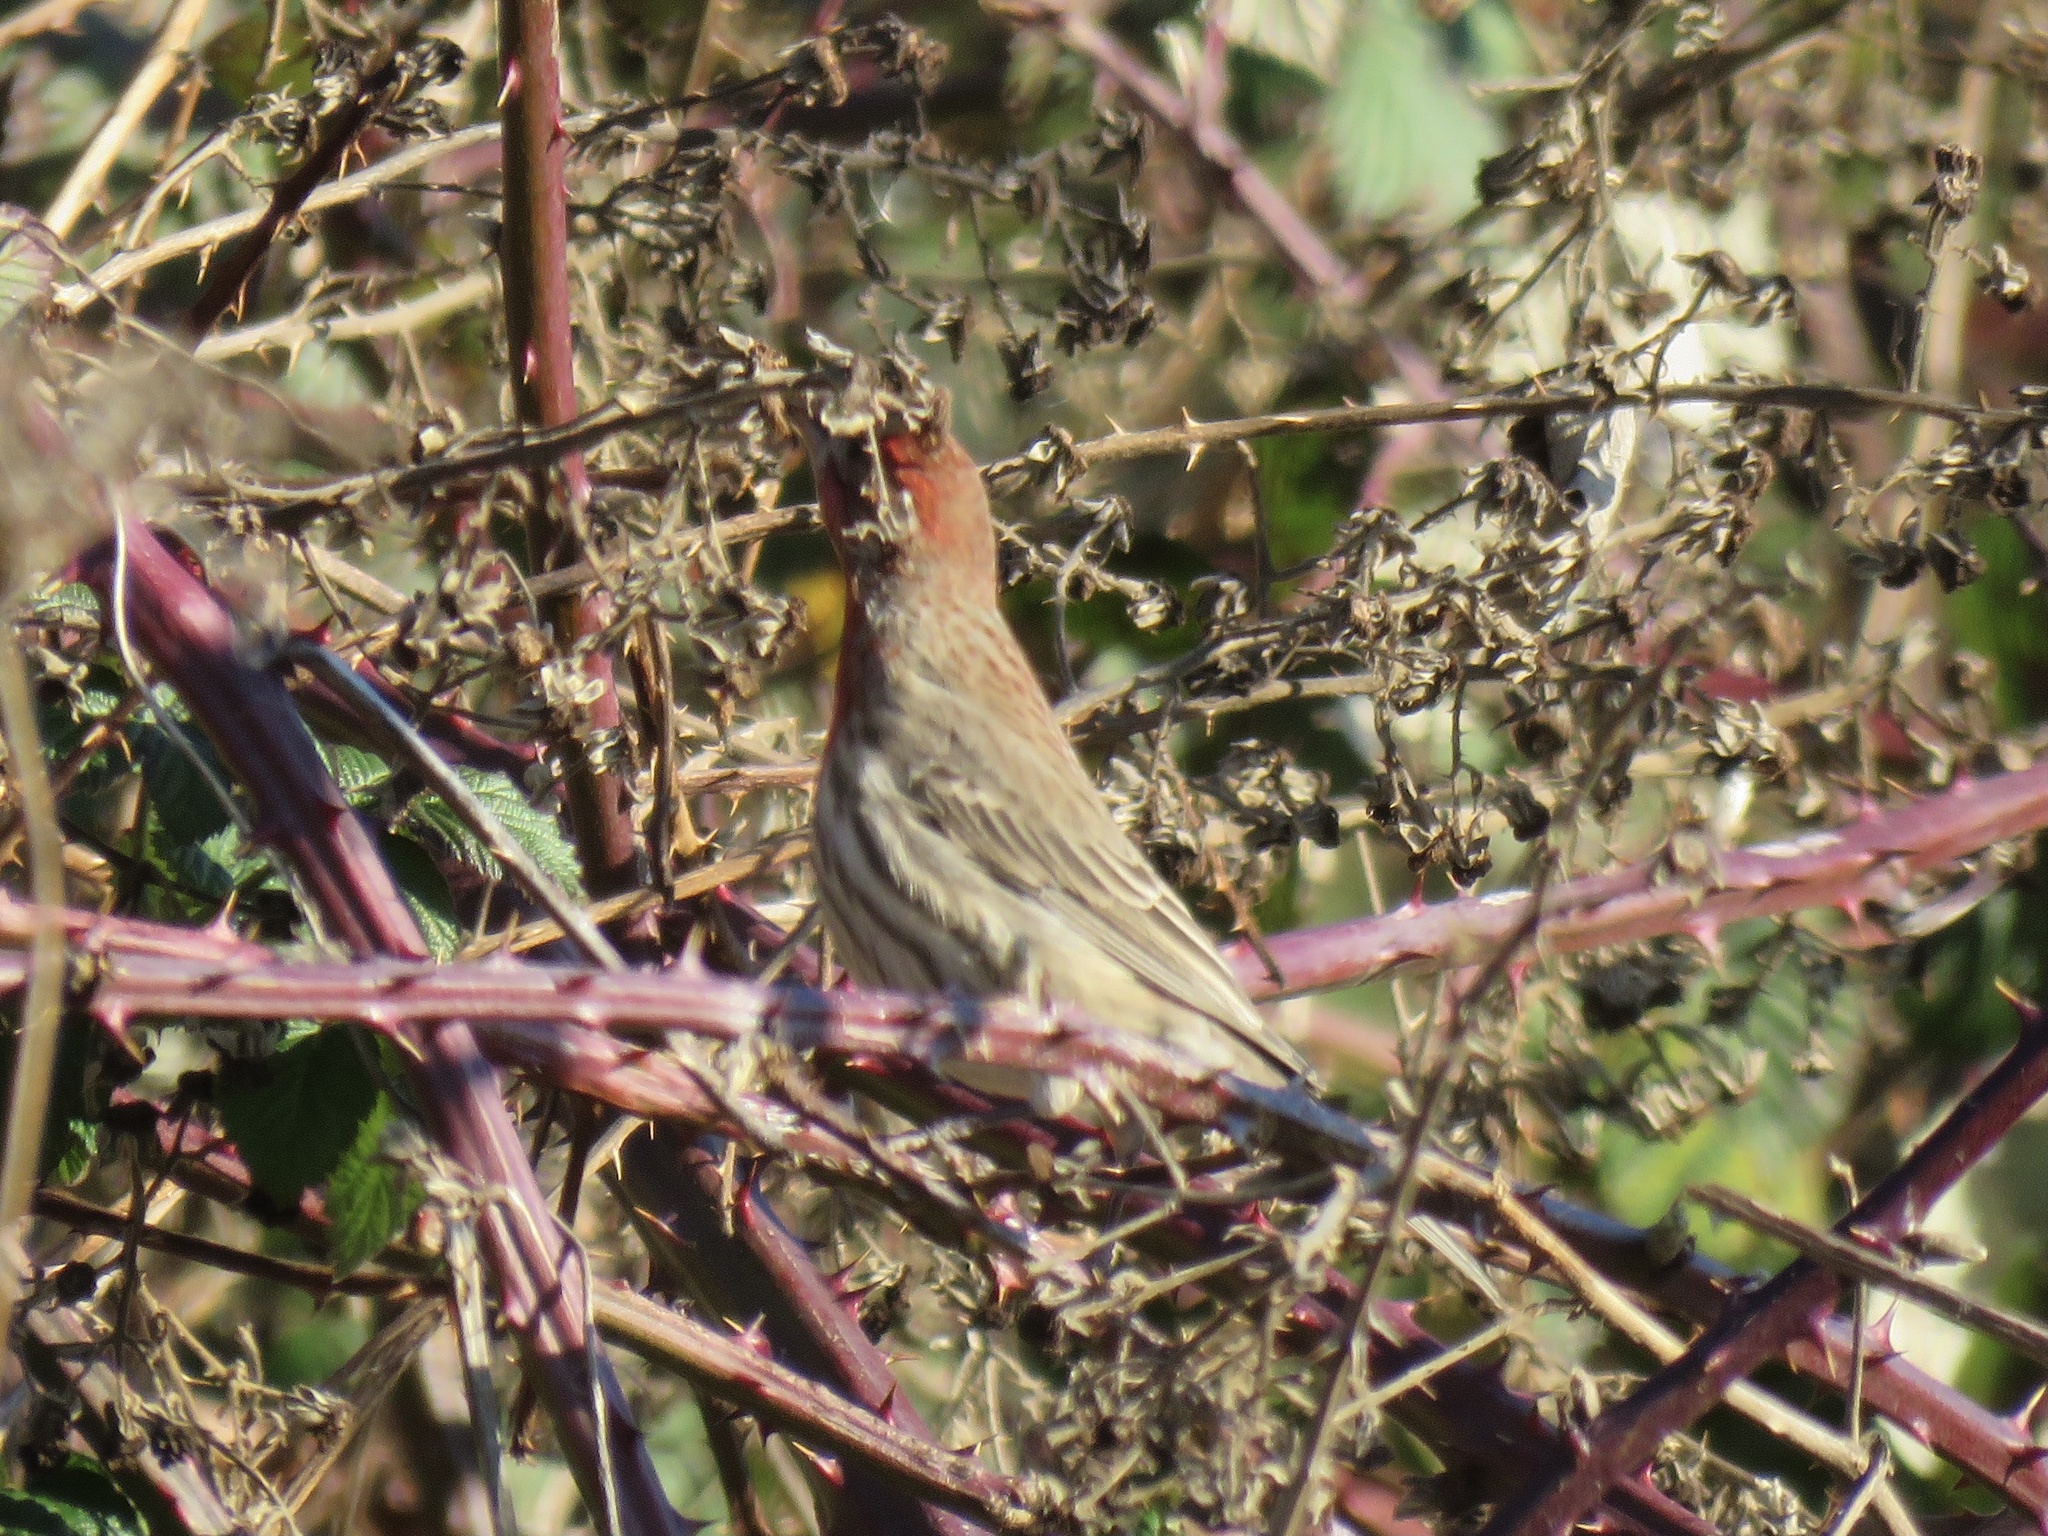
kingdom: Animalia
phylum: Chordata
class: Aves
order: Passeriformes
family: Fringillidae
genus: Haemorhous
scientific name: Haemorhous mexicanus
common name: House finch
